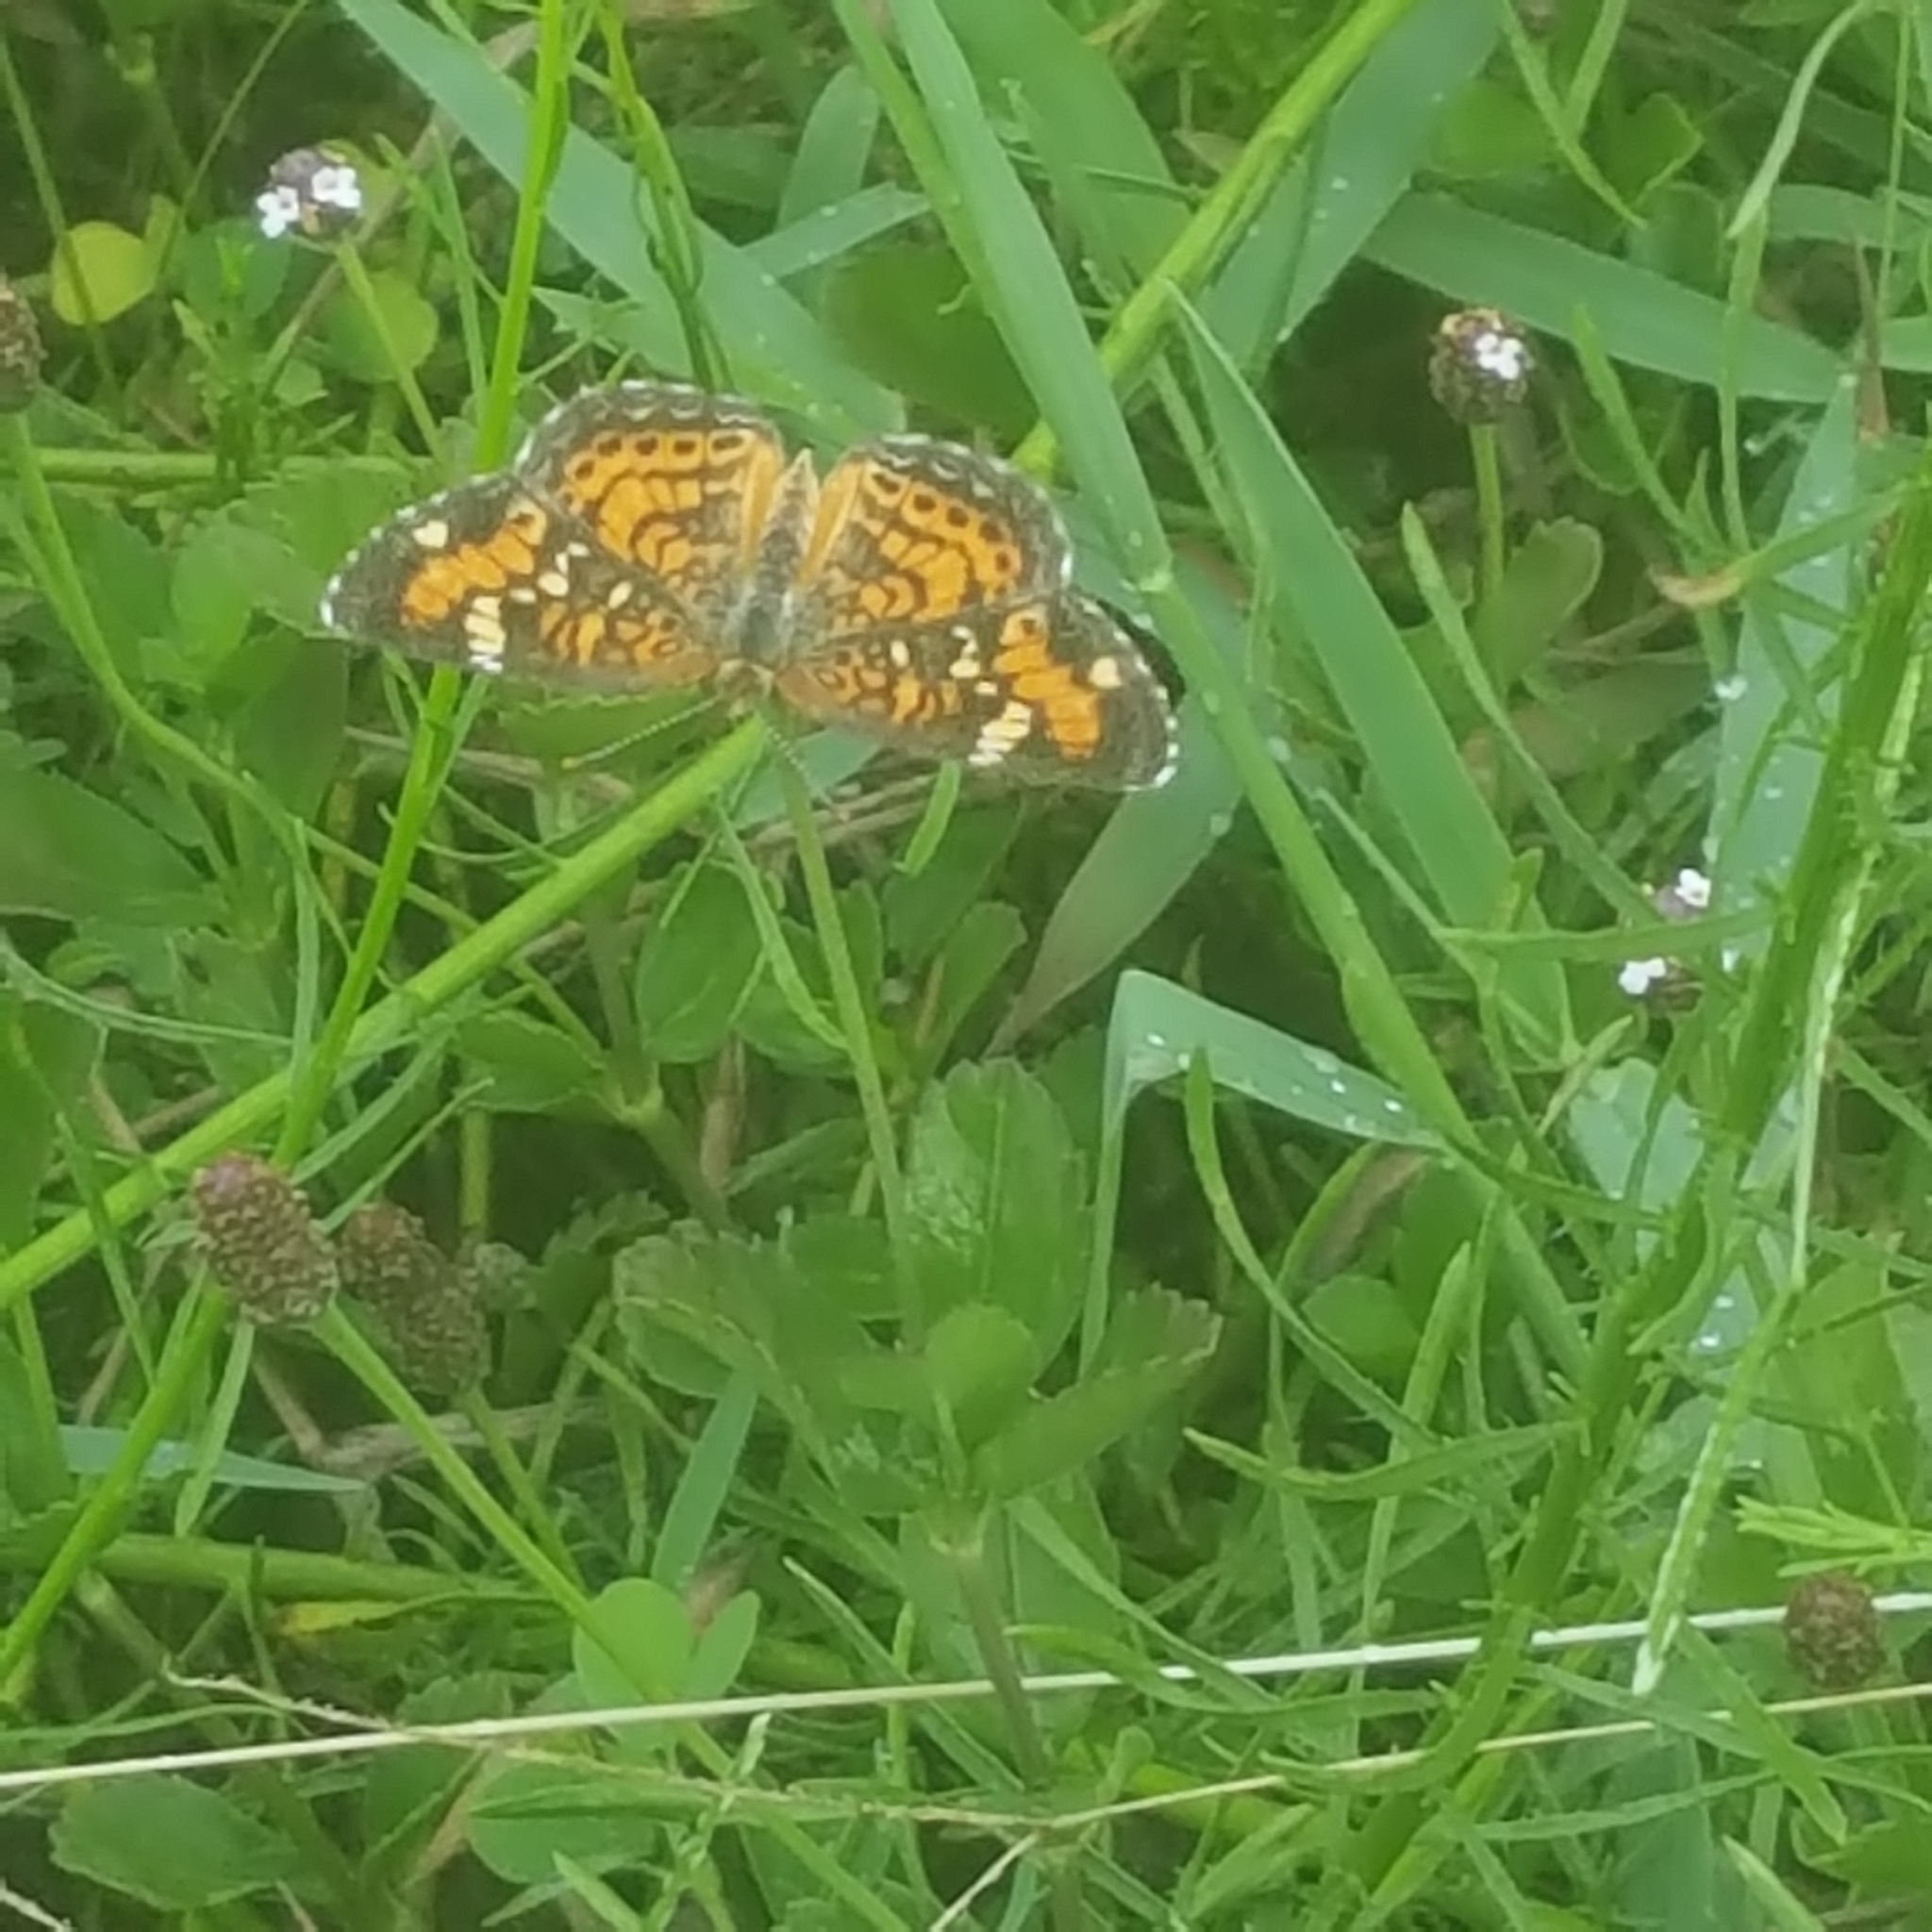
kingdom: Animalia
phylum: Arthropoda
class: Insecta
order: Lepidoptera
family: Nymphalidae
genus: Phyciodes
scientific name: Phyciodes phaon
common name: Phaon crescent
